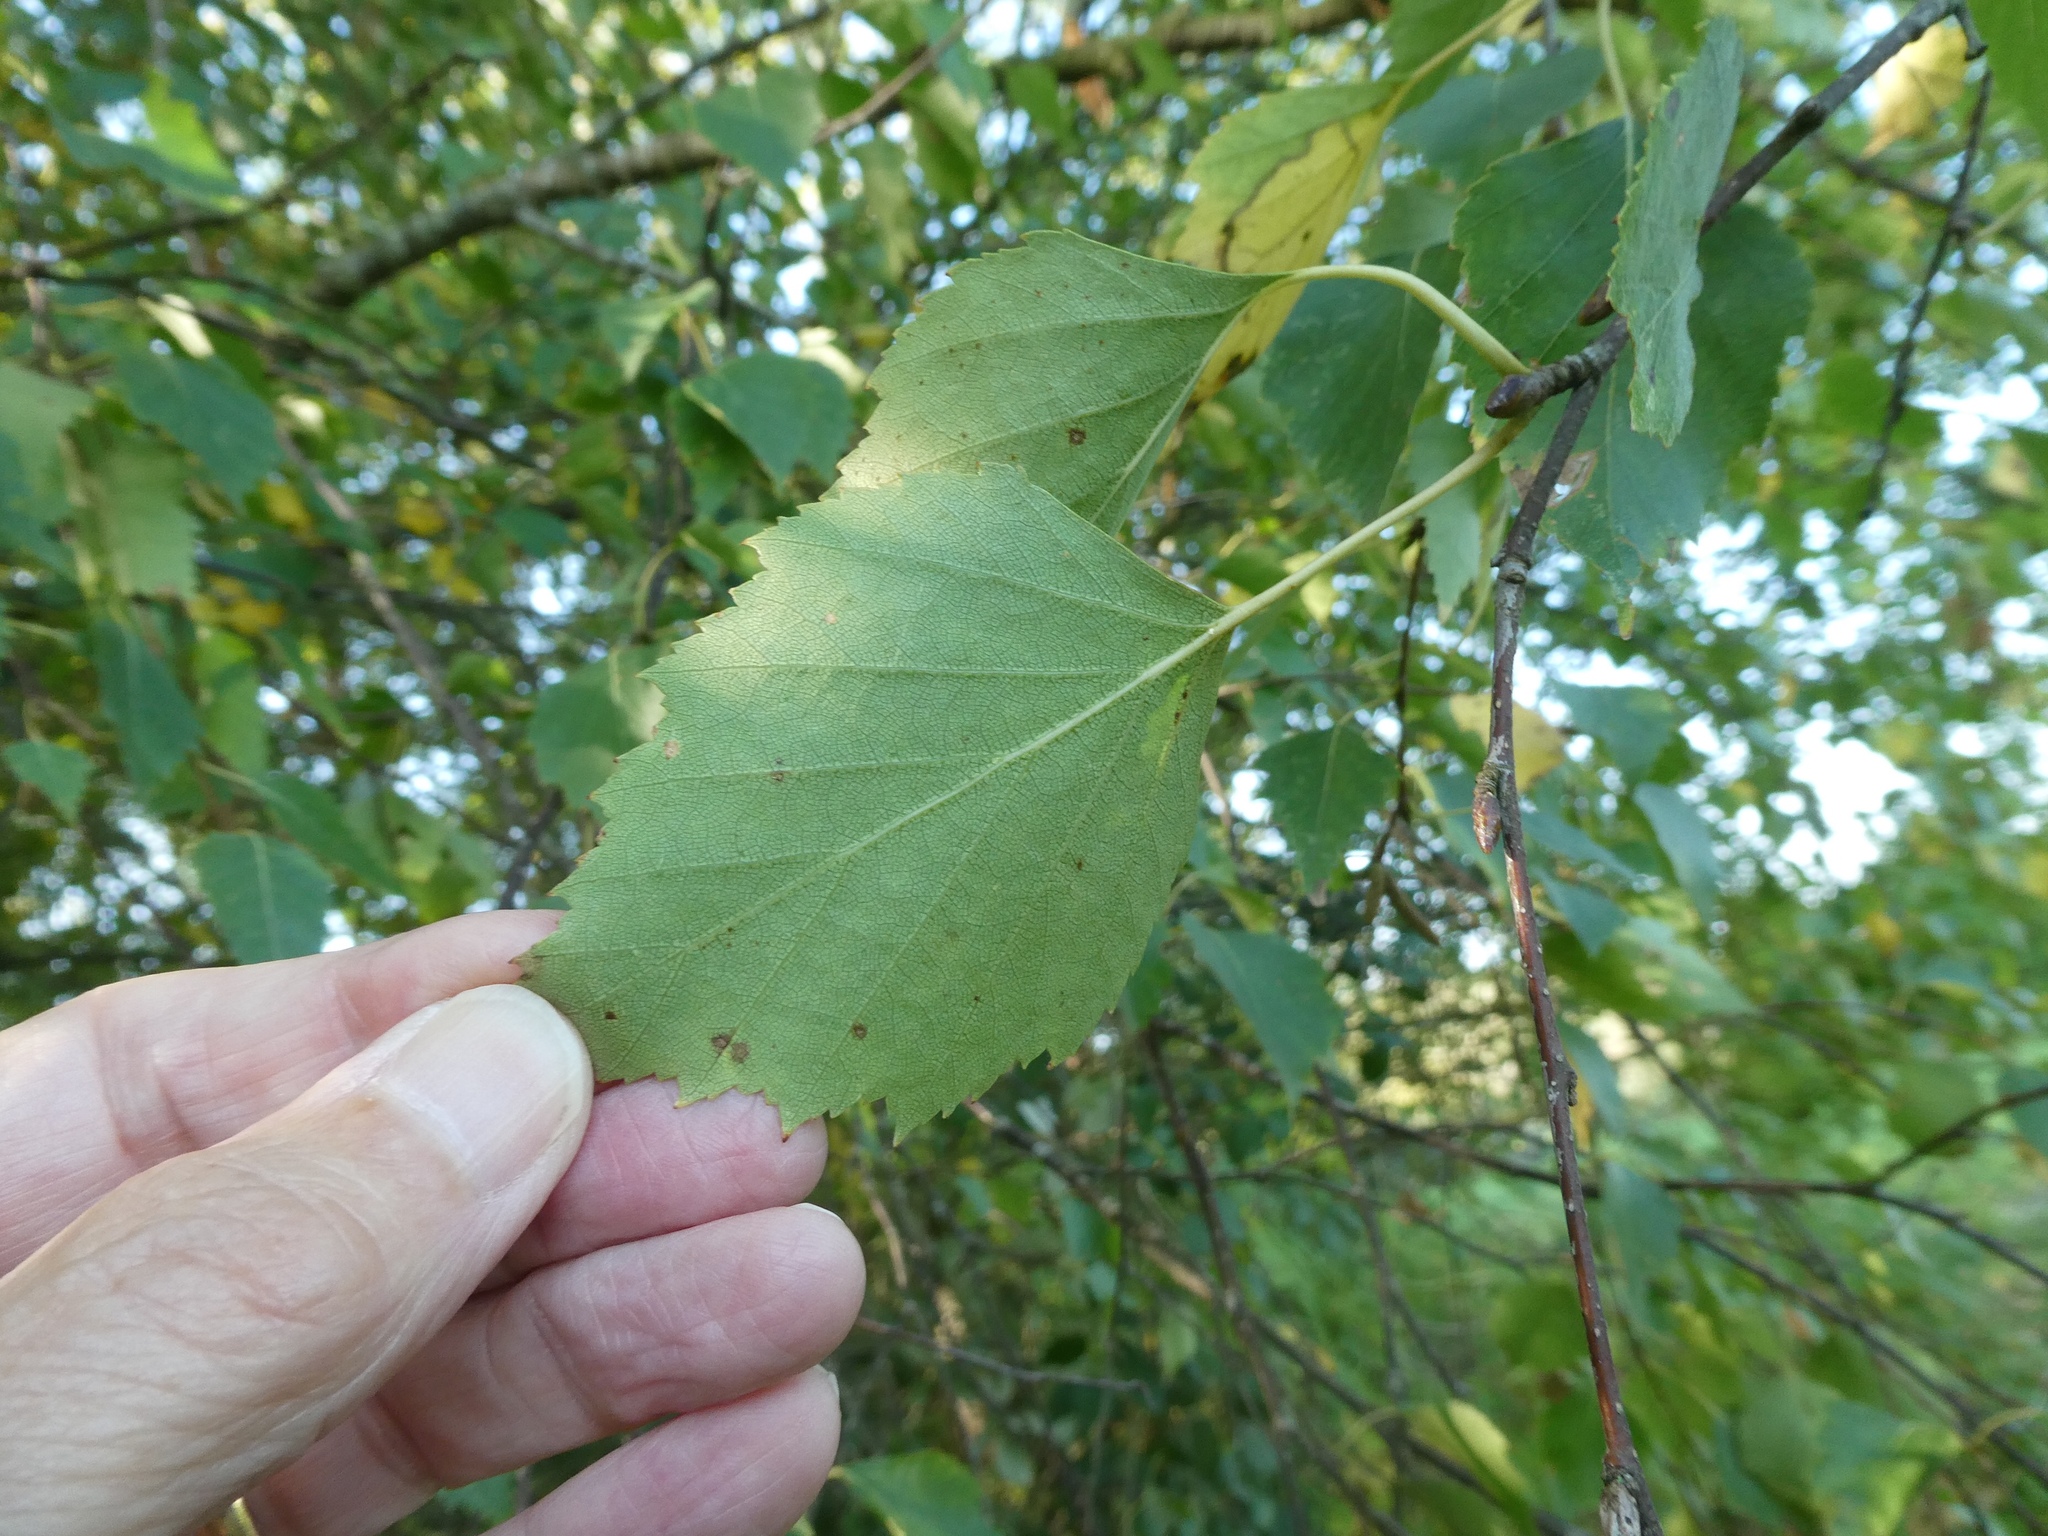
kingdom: Plantae
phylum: Tracheophyta
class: Magnoliopsida
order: Fagales
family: Betulaceae
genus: Betula
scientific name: Betula pendula
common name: Silver birch
